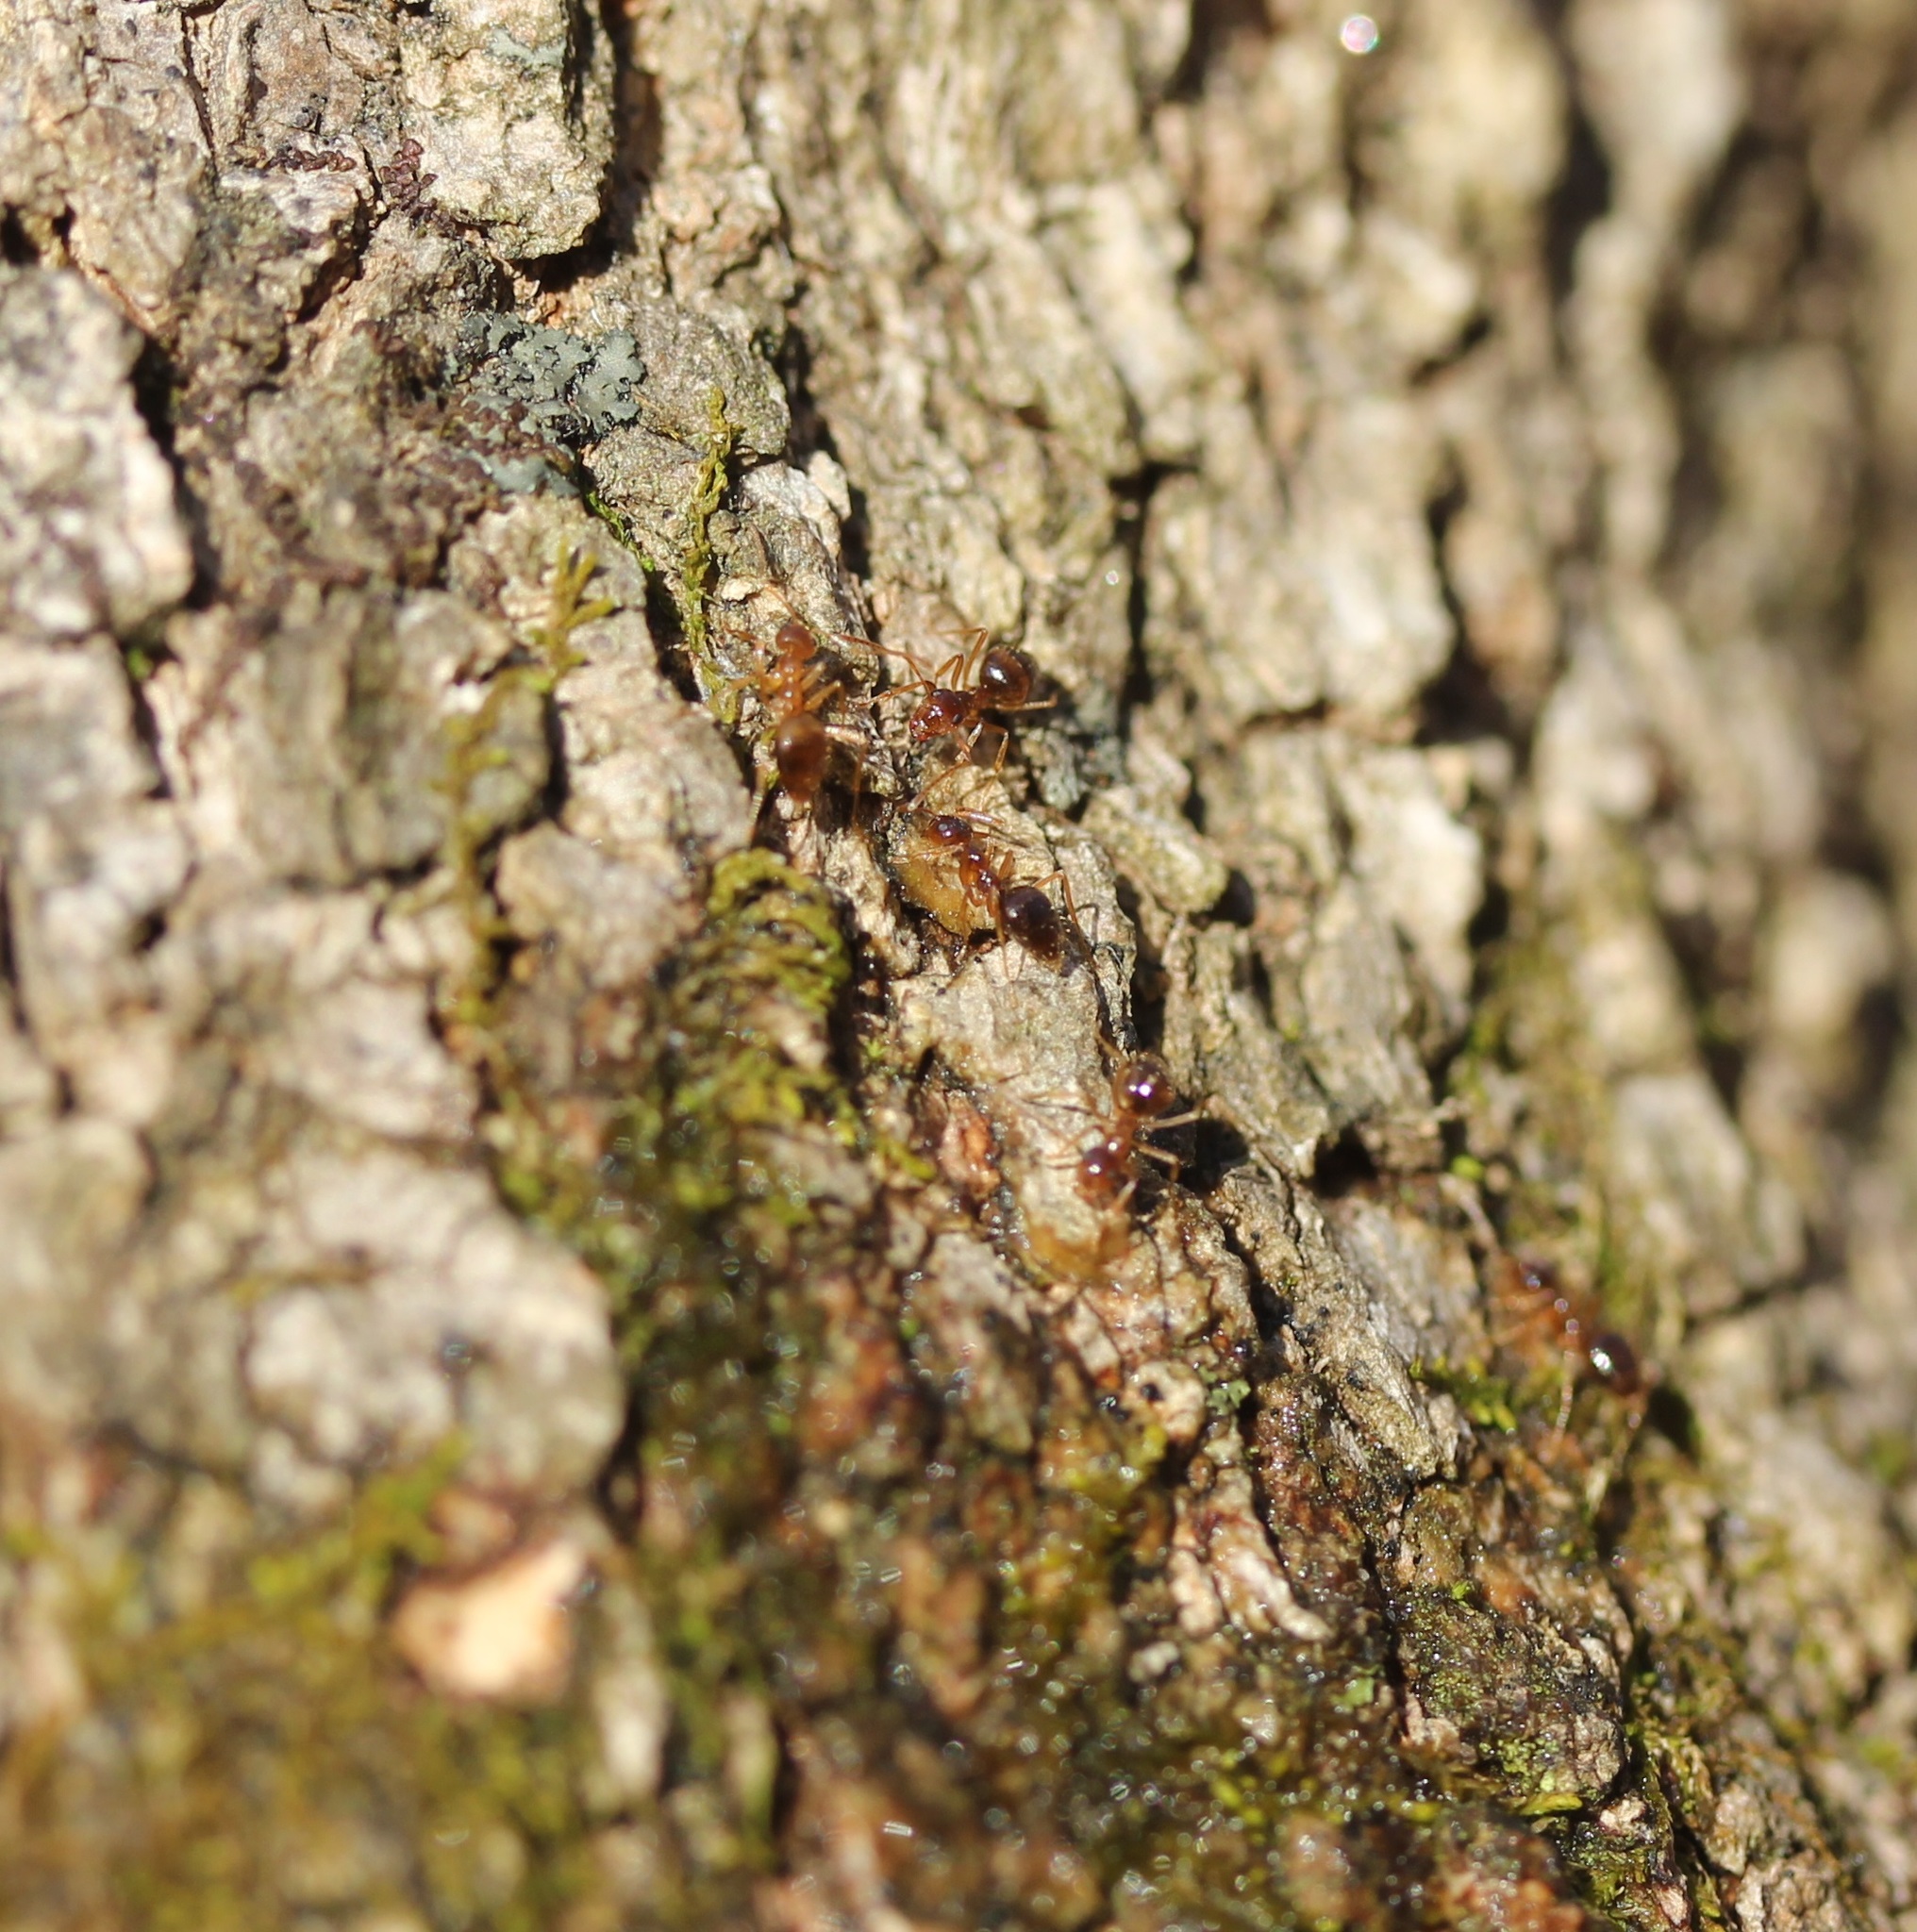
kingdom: Animalia
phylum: Arthropoda
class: Insecta
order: Hymenoptera
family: Formicidae
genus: Prenolepis
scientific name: Prenolepis imparis
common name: Small honey ant
